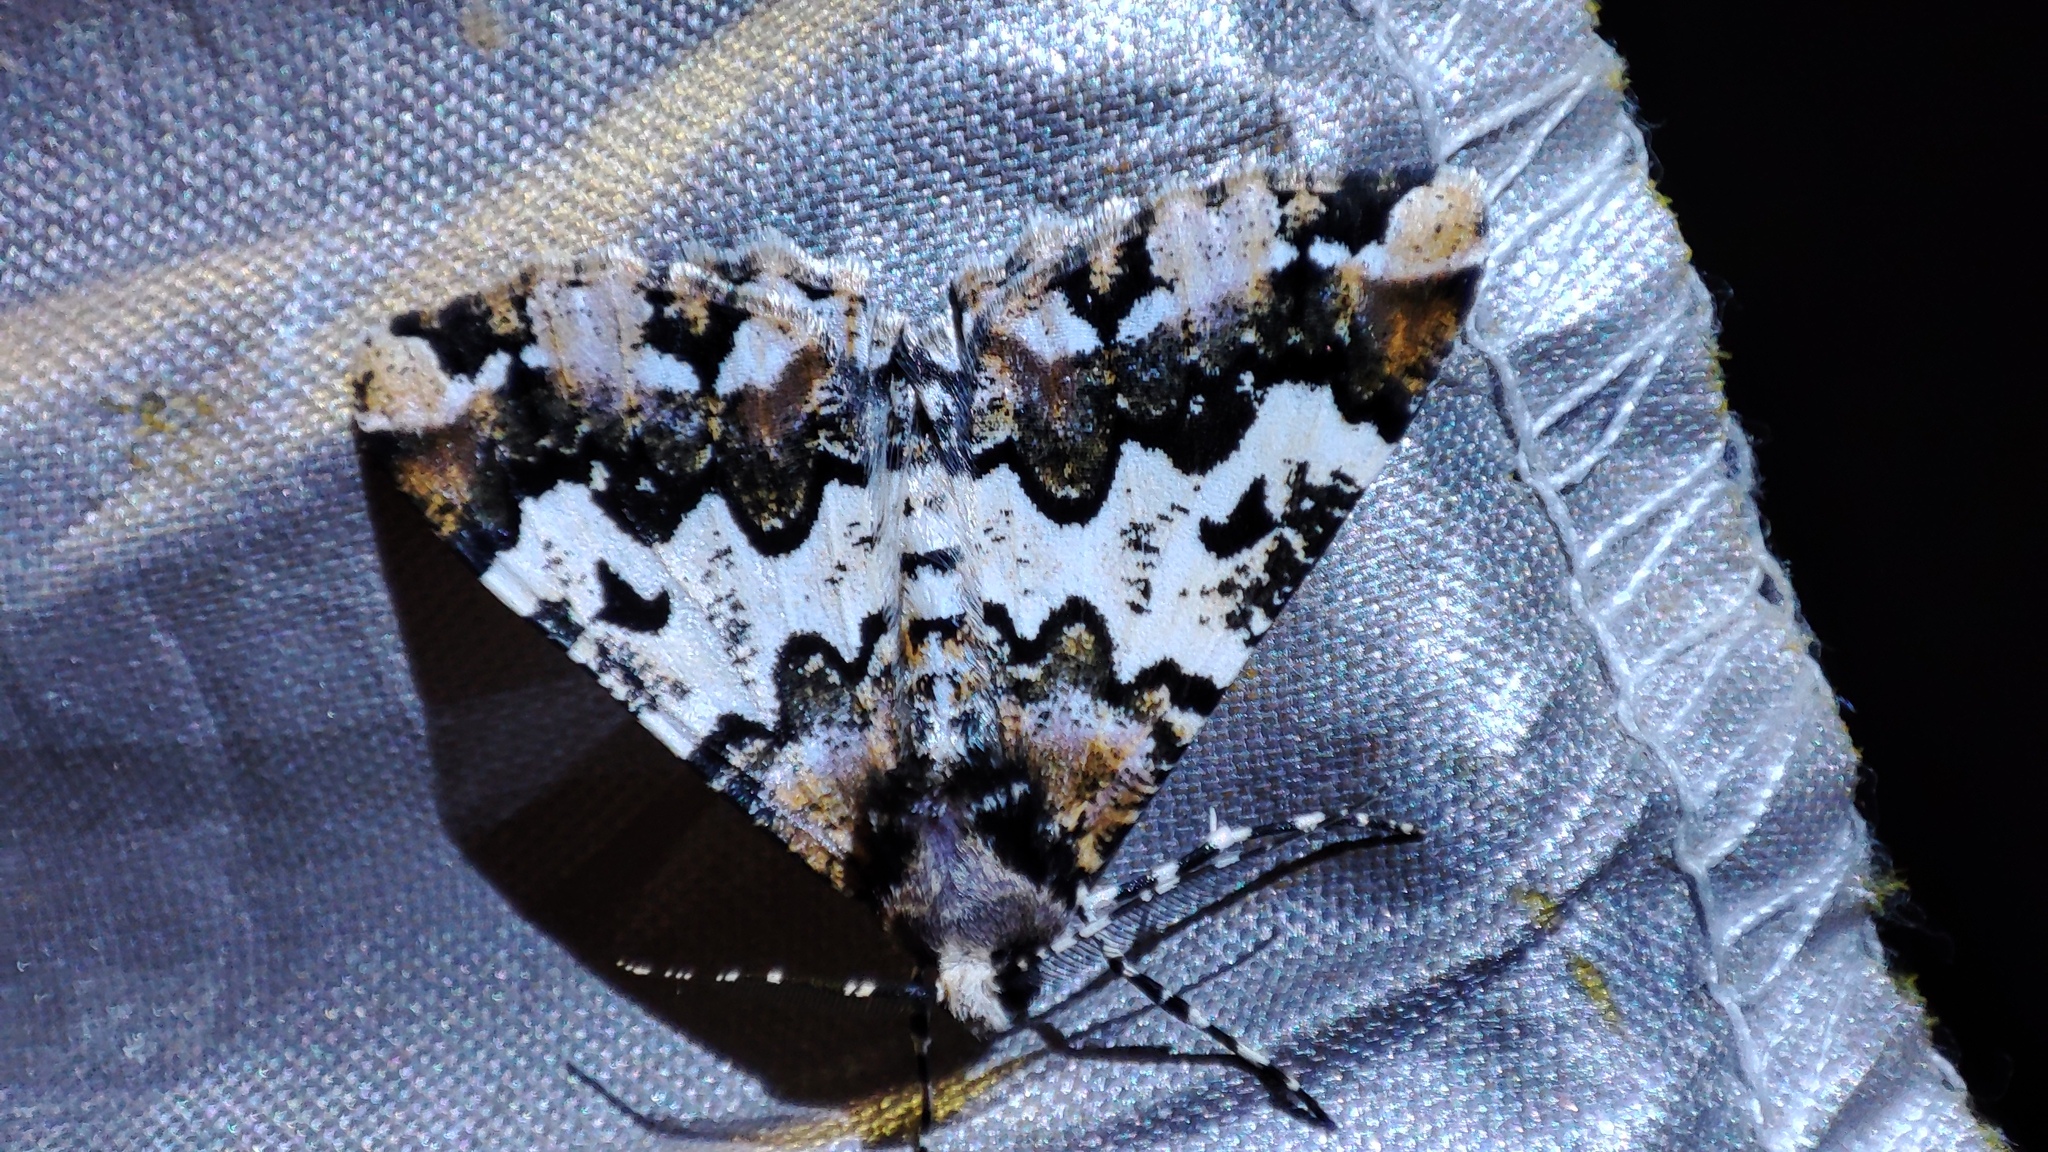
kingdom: Animalia
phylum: Arthropoda
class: Insecta
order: Lepidoptera
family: Geometridae
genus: Oedicentra
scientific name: Oedicentra albipennis
